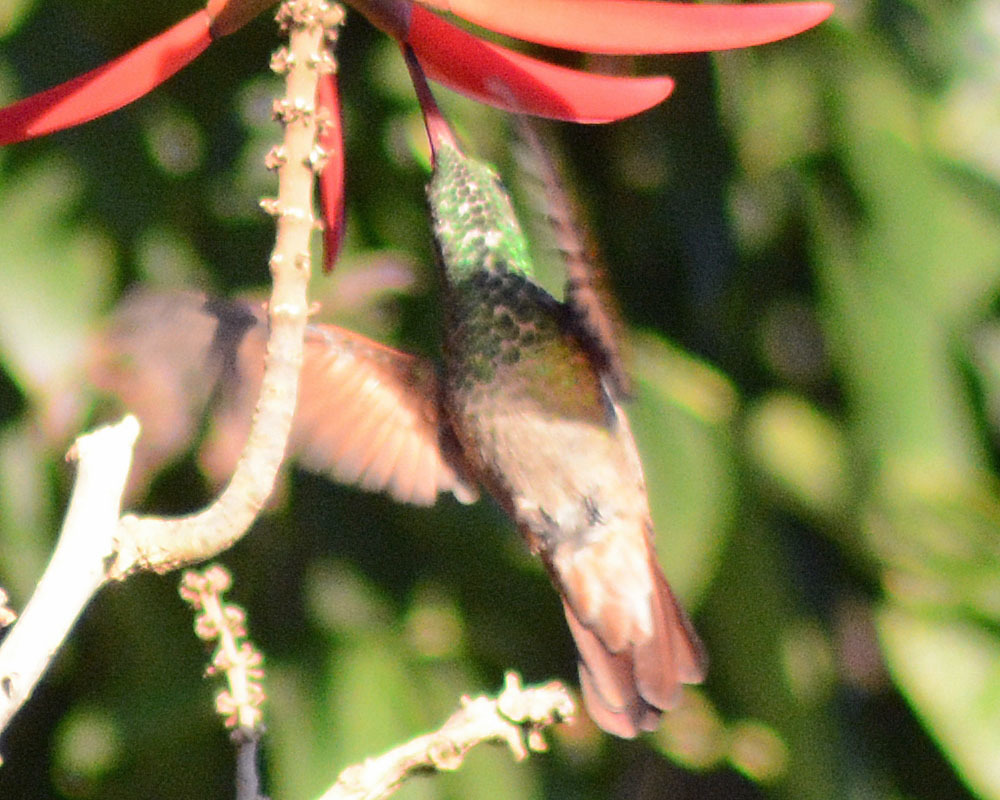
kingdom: Animalia
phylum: Chordata
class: Aves
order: Apodiformes
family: Trochilidae
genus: Saucerottia
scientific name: Saucerottia beryllina
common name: Berylline hummingbird
